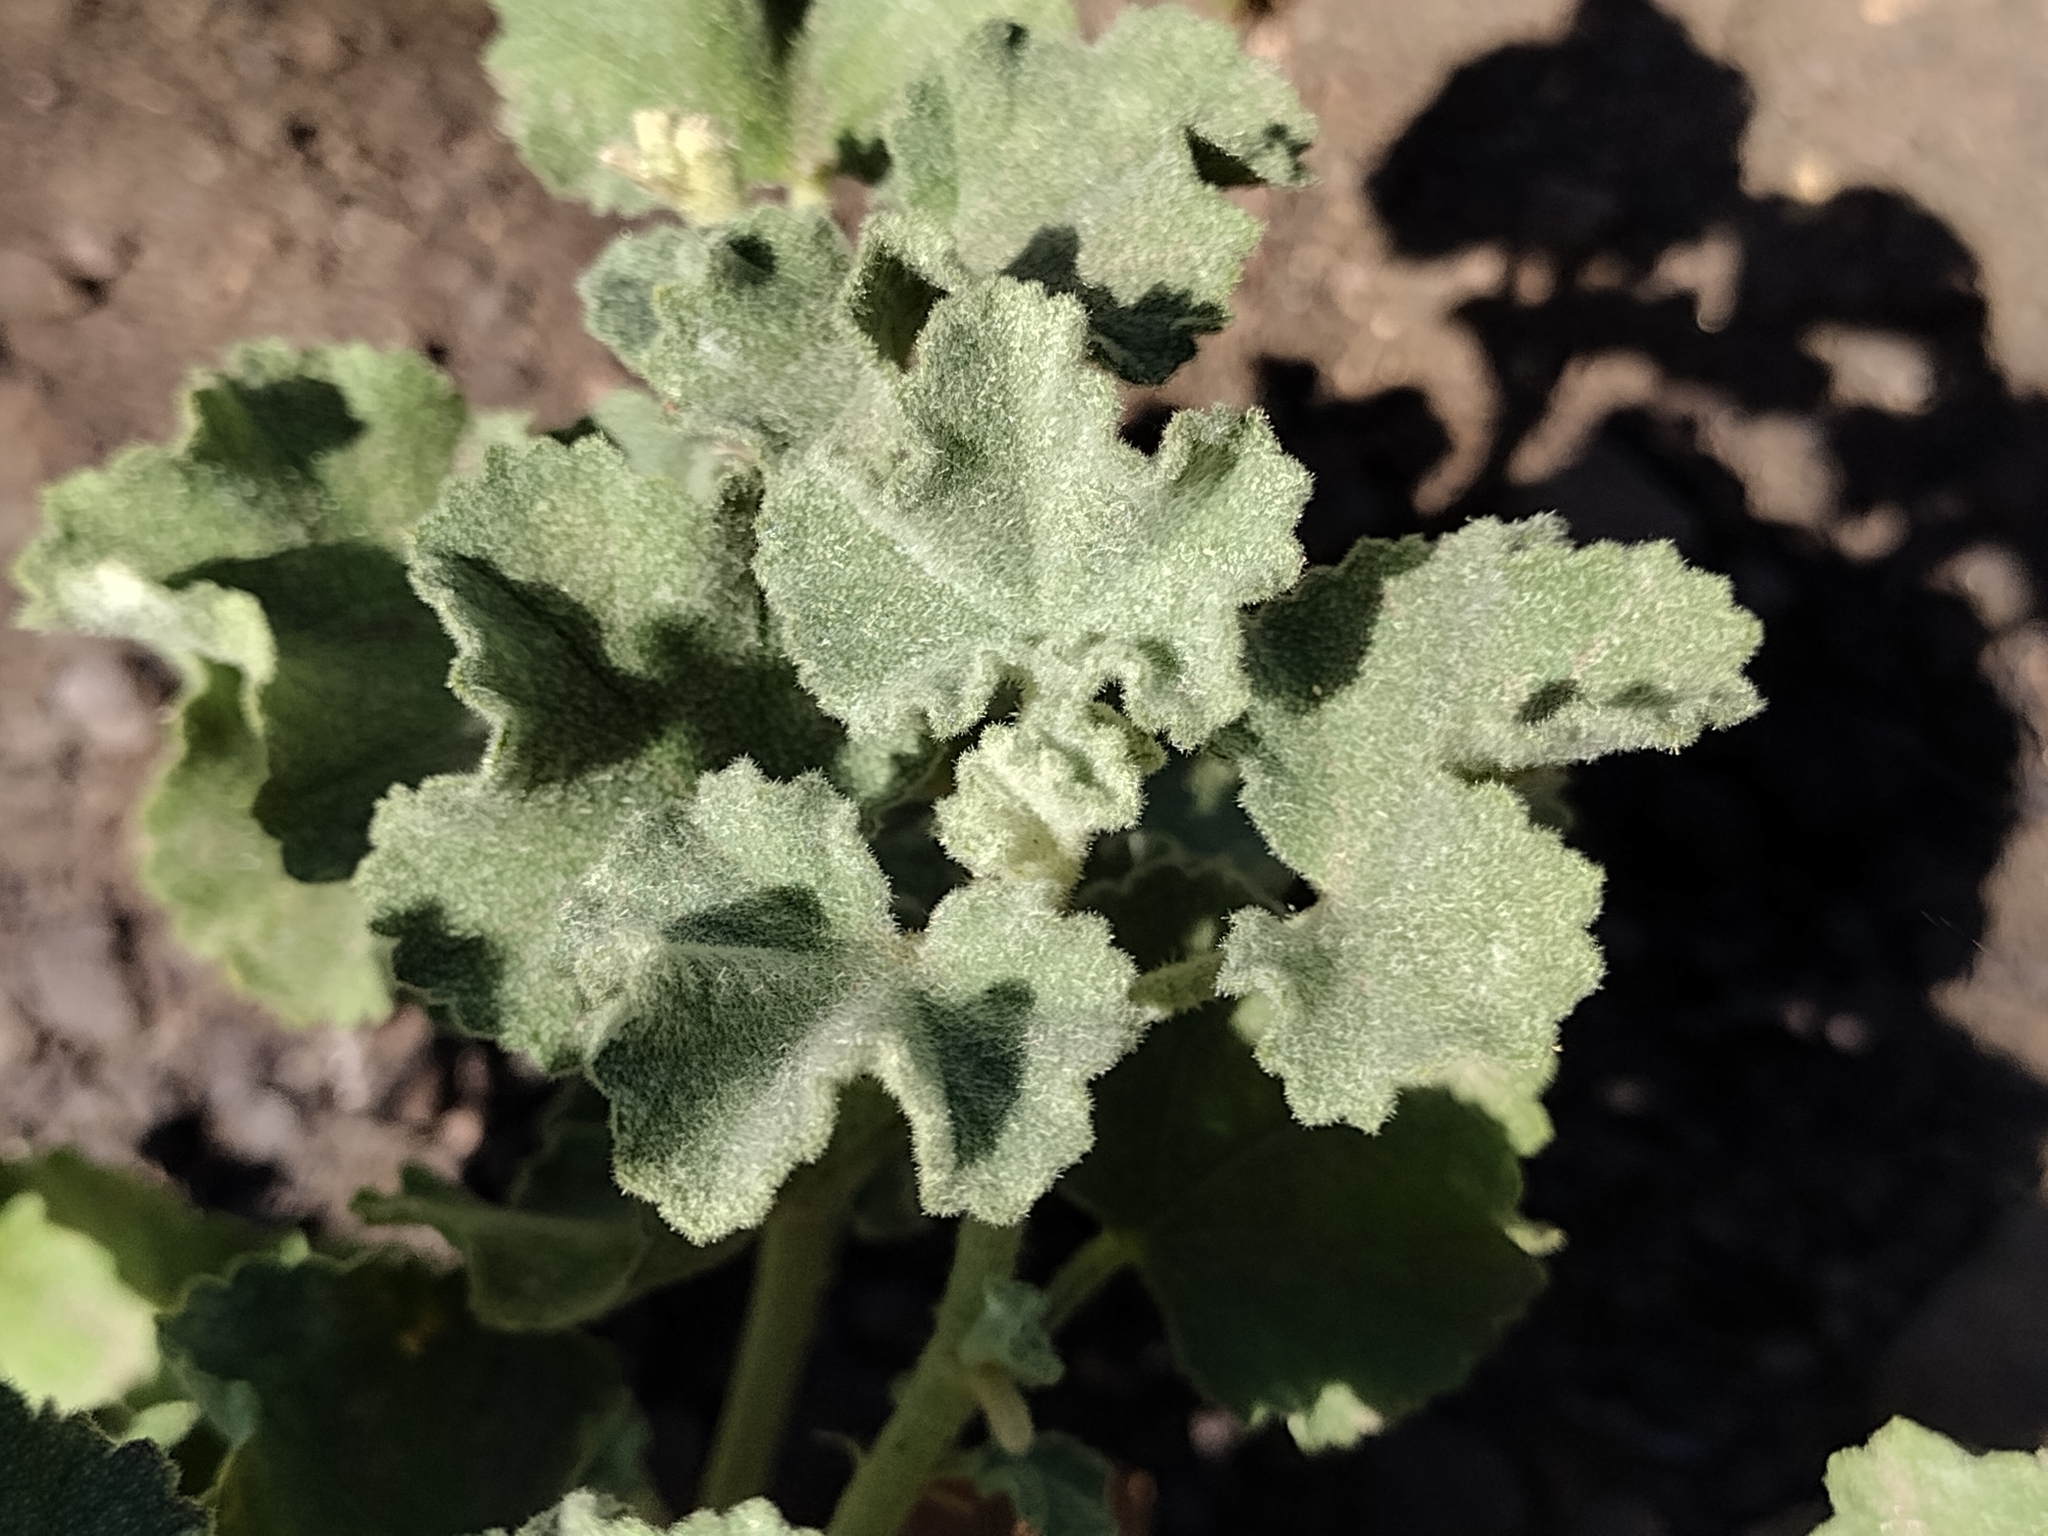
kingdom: Plantae
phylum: Tracheophyta
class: Magnoliopsida
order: Malvales
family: Malvaceae
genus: Malacothamnus
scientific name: Malacothamnus fremontii
